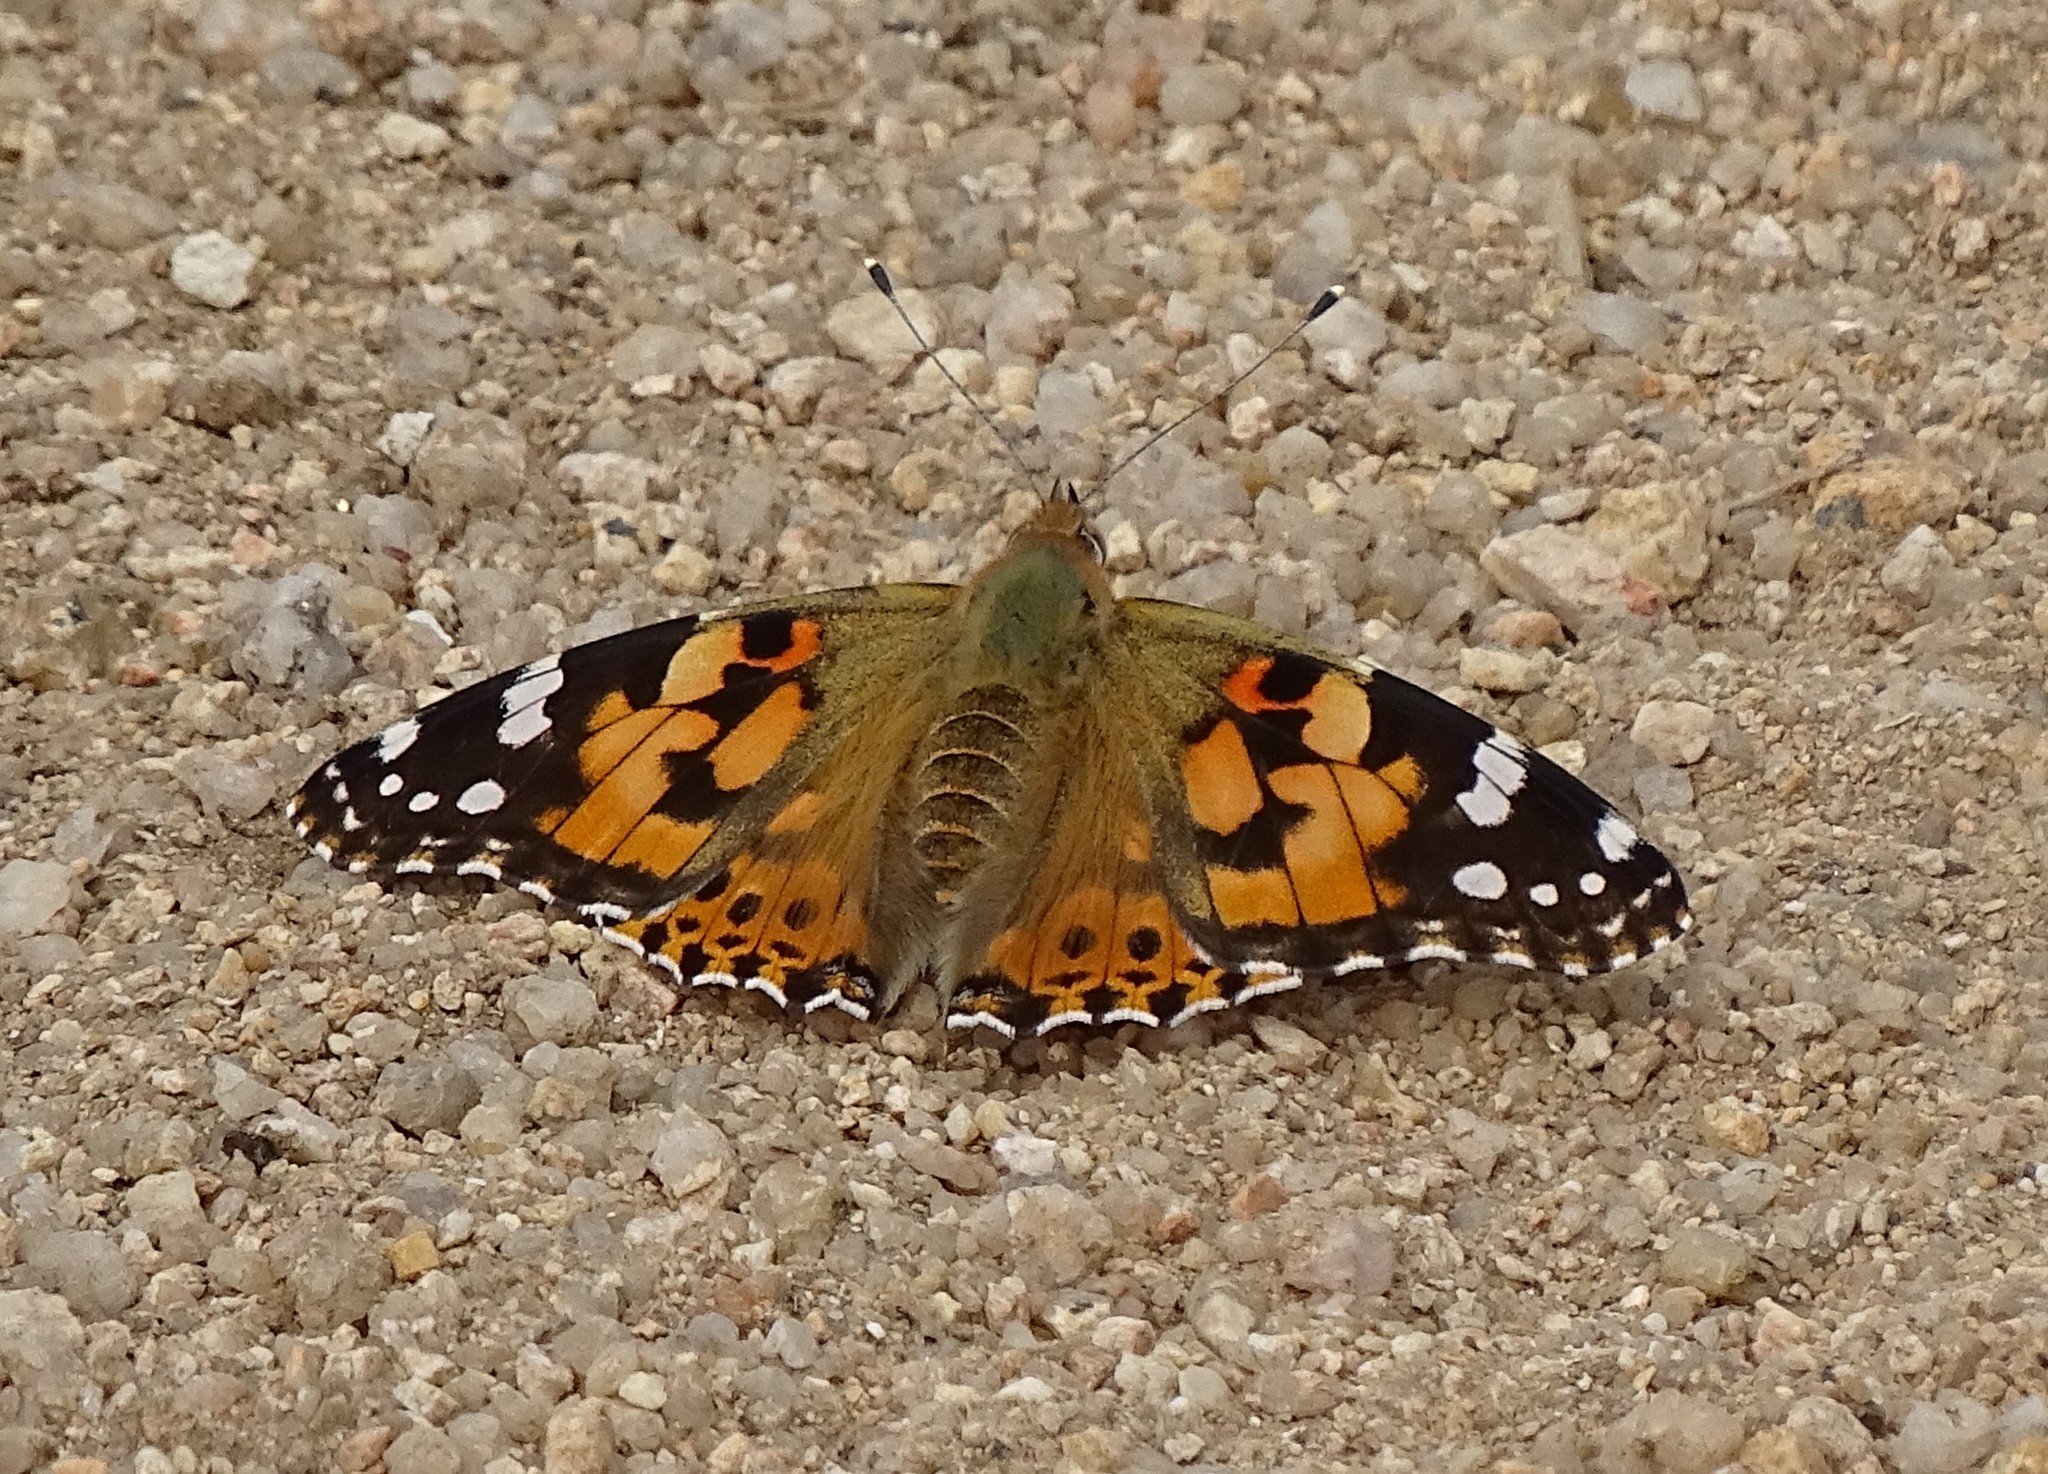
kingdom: Animalia
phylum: Arthropoda
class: Insecta
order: Lepidoptera
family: Nymphalidae
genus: Vanessa
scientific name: Vanessa cardui
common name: Painted lady
